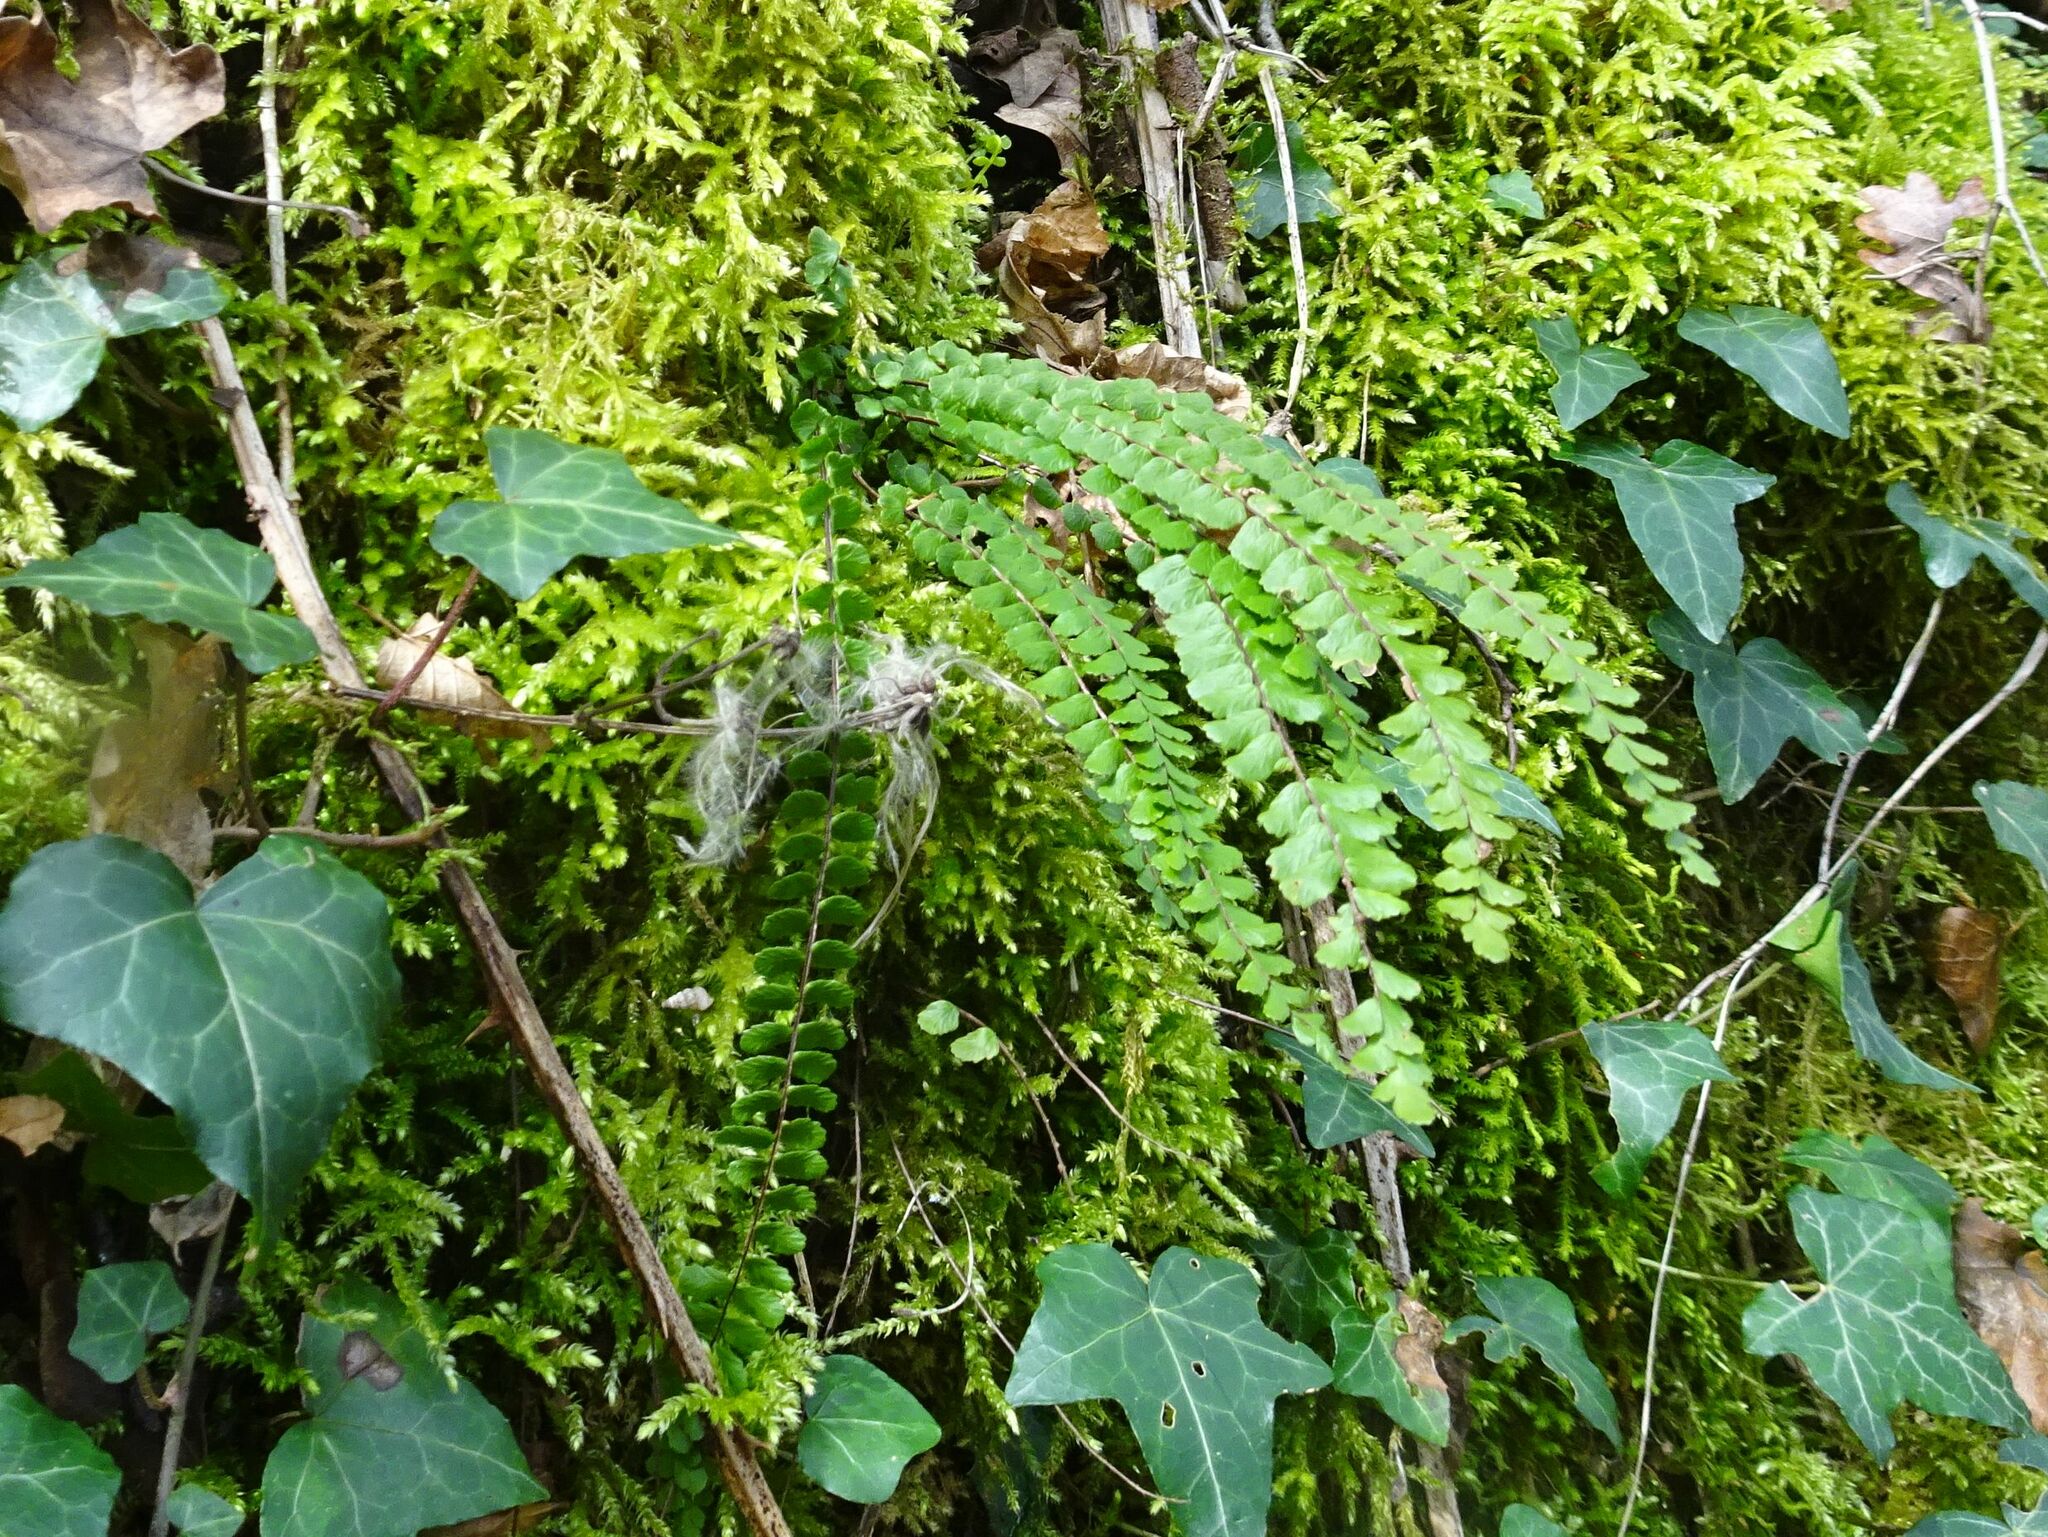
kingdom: Plantae
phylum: Tracheophyta
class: Polypodiopsida
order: Polypodiales
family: Aspleniaceae
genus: Asplenium
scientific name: Asplenium trichomanes
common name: Maidenhair spleenwort
